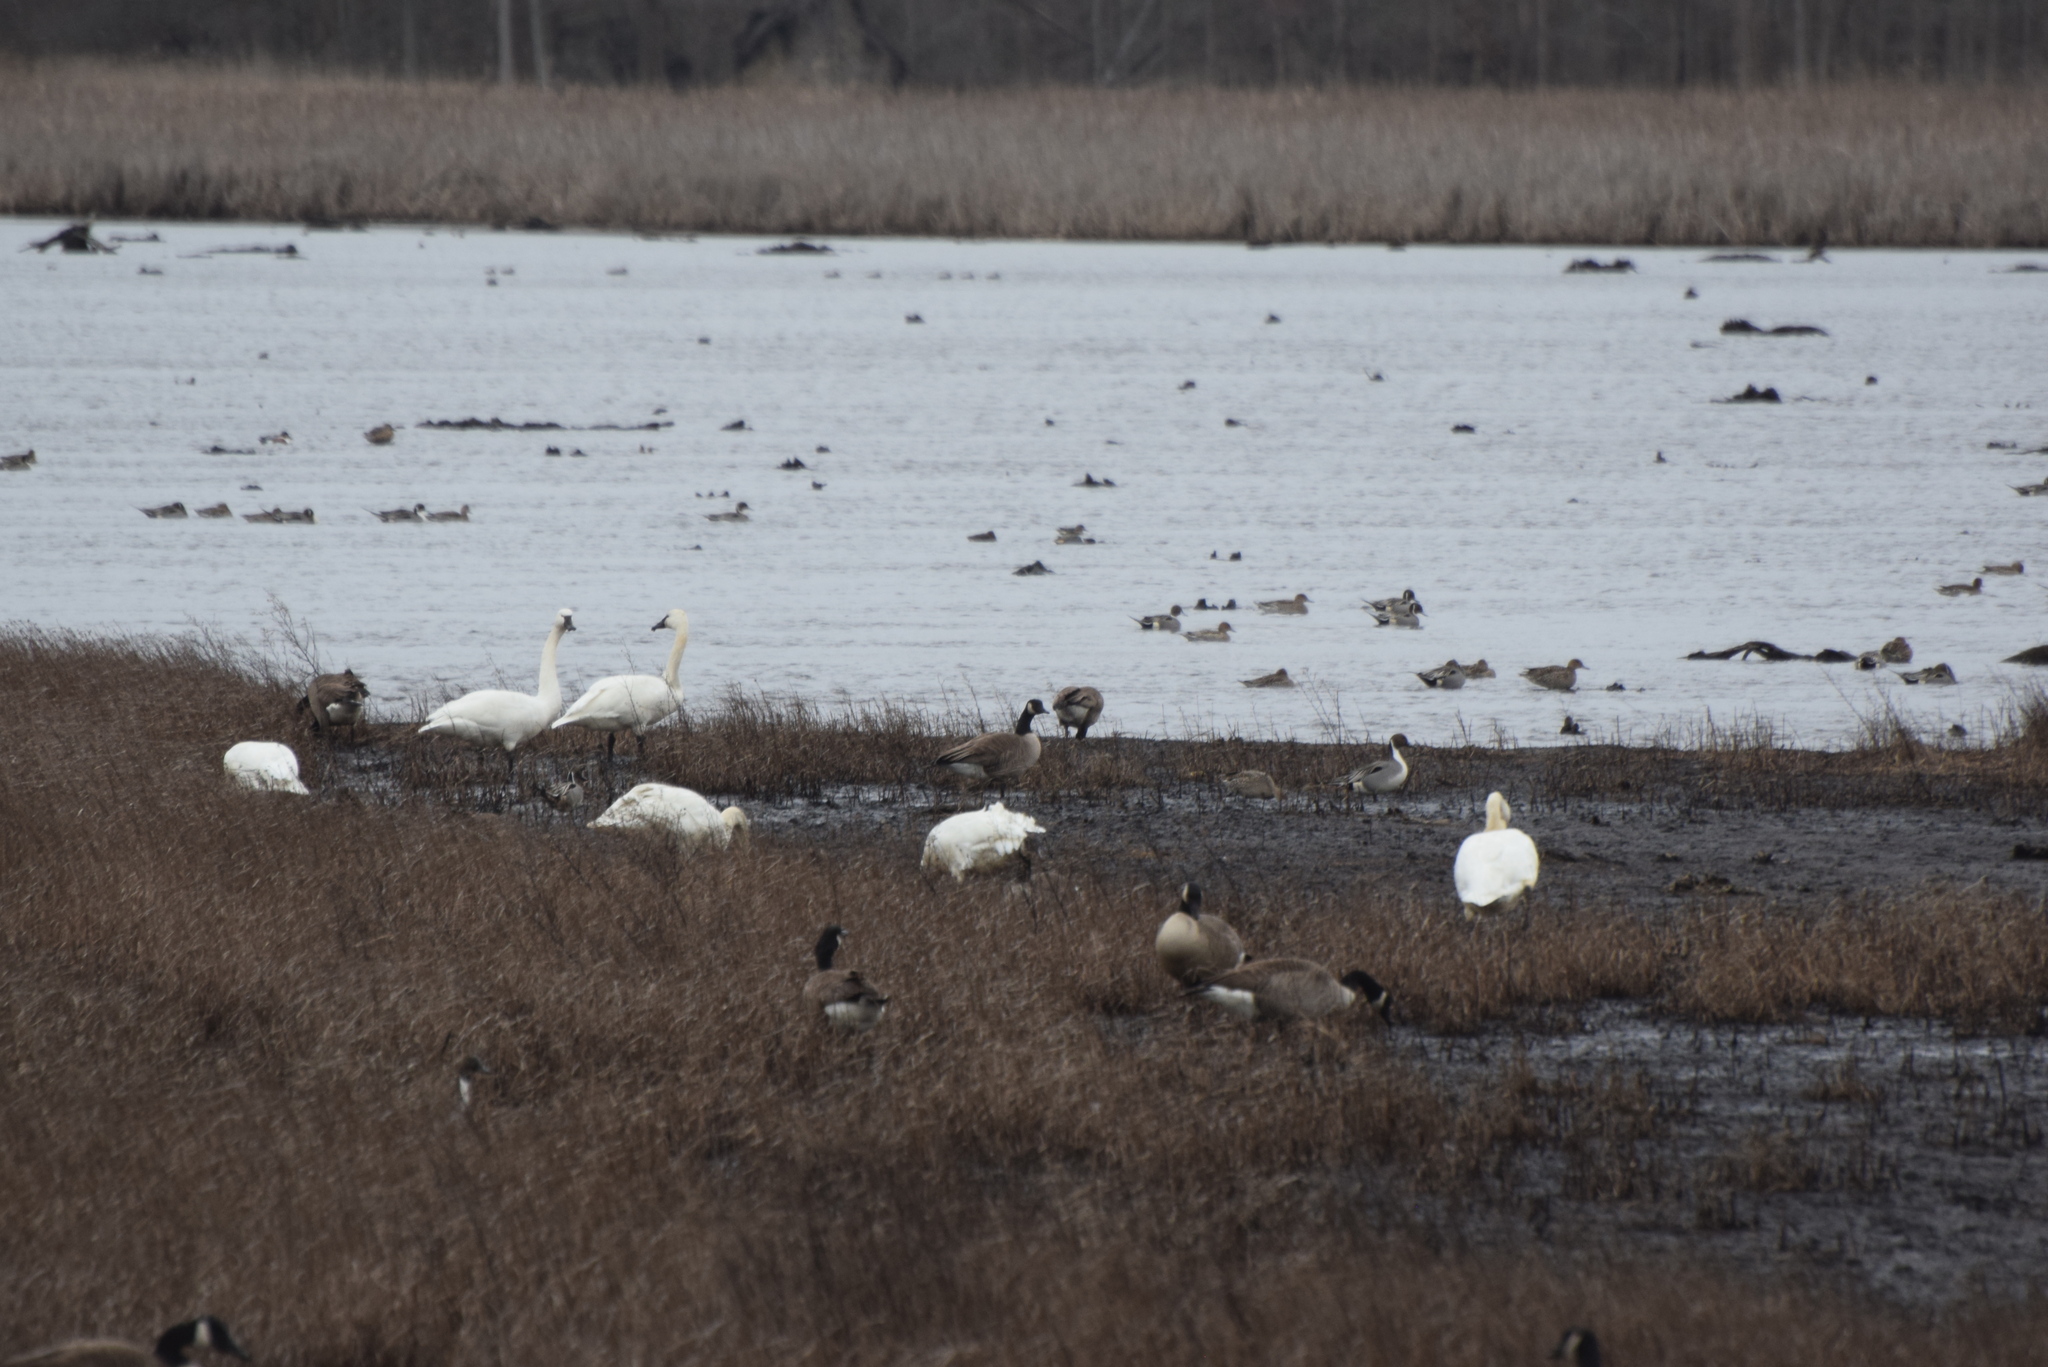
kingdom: Animalia
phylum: Chordata
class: Aves
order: Anseriformes
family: Anatidae
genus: Branta
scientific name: Branta canadensis
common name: Canada goose
